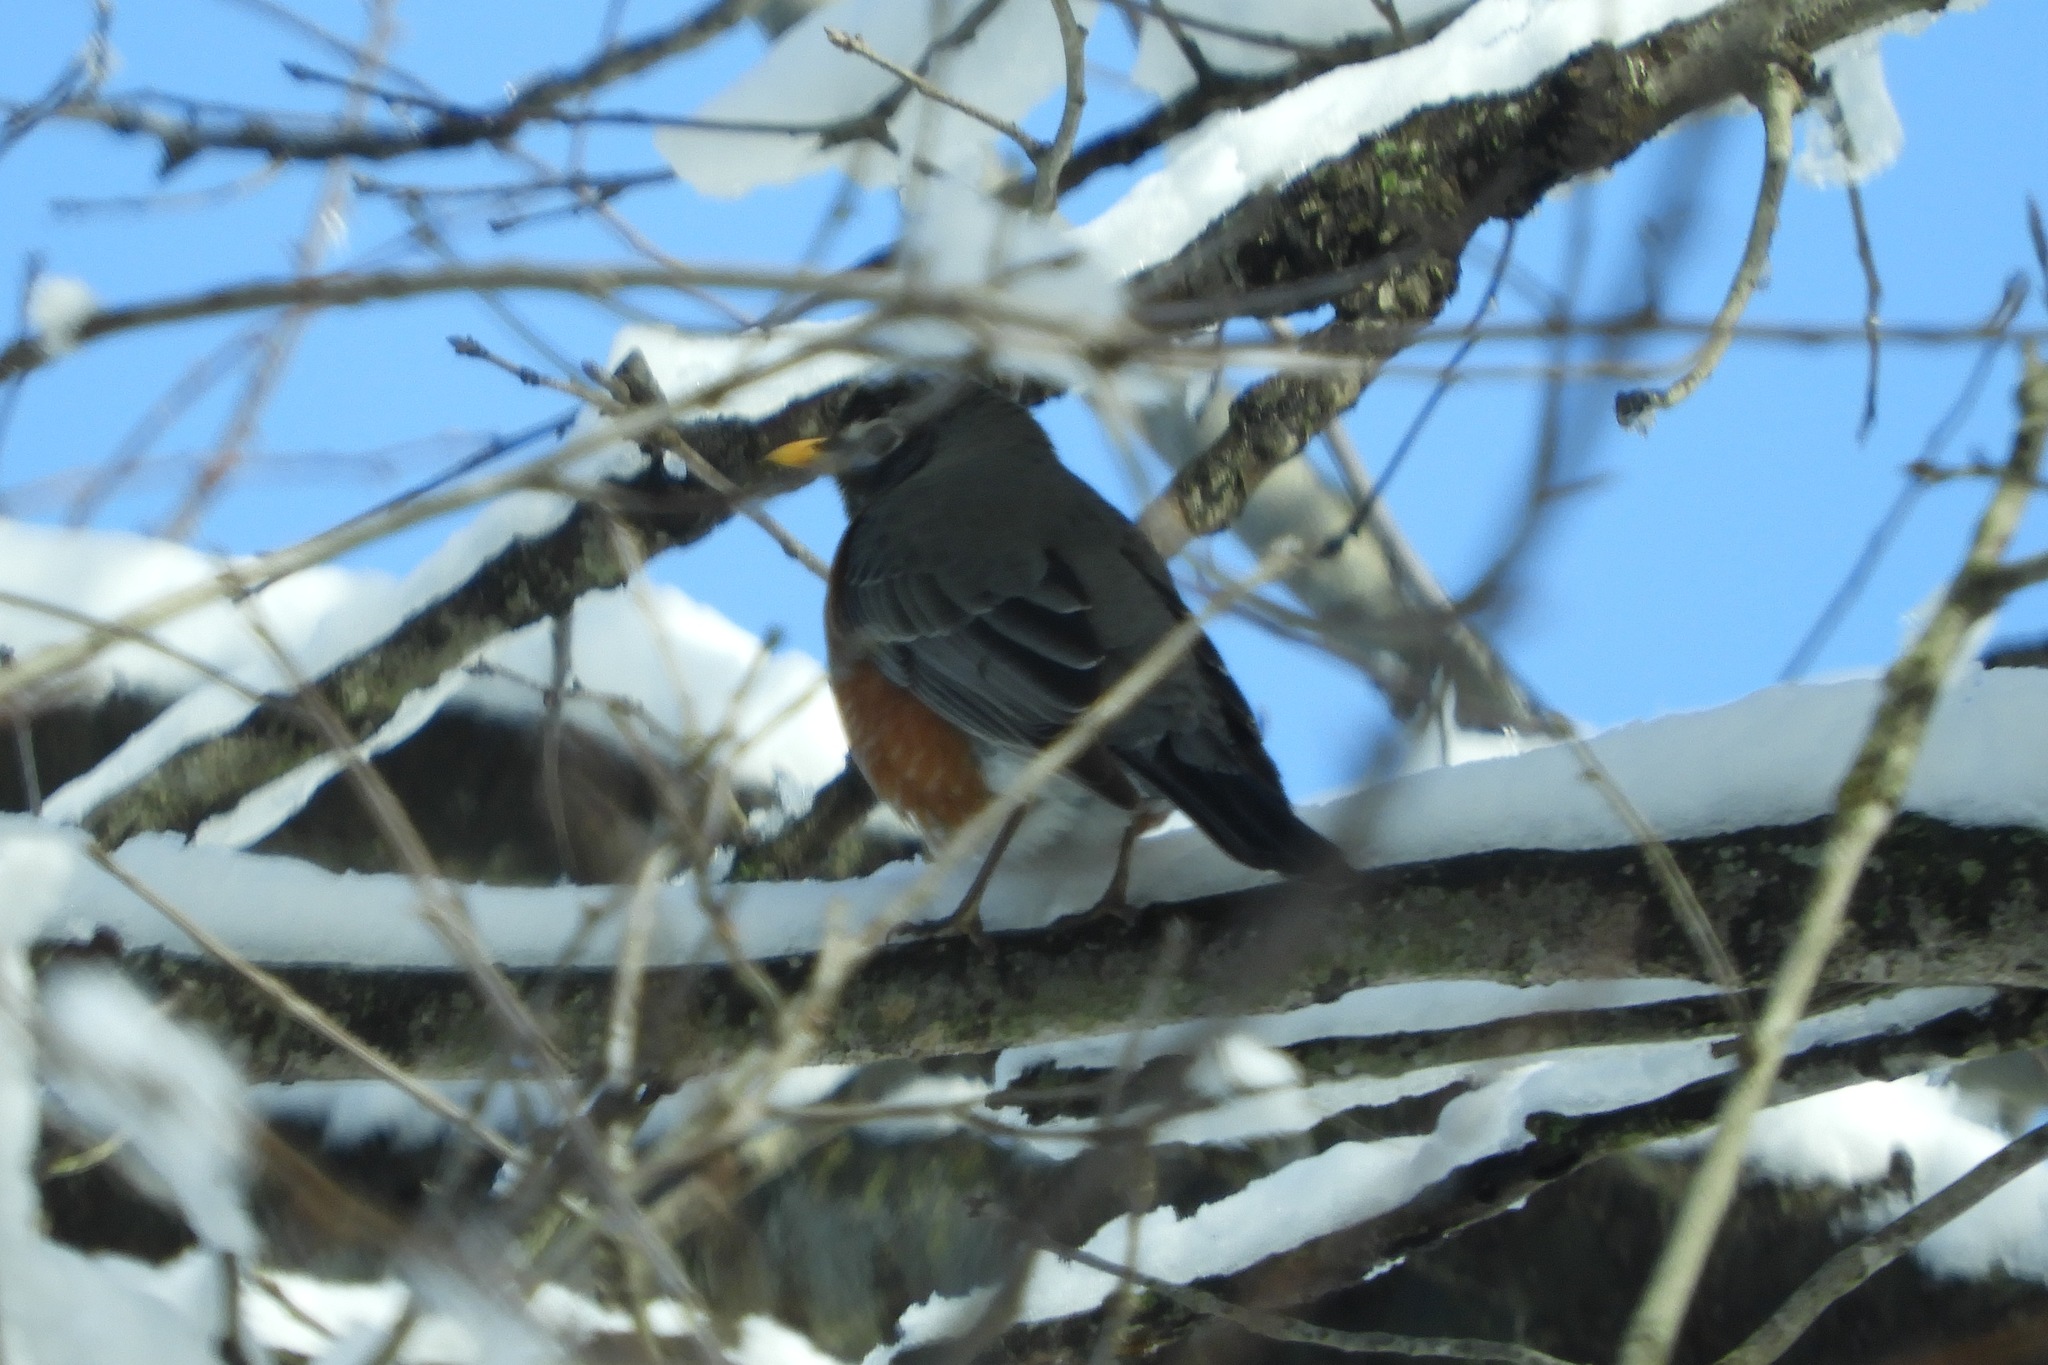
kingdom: Animalia
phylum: Chordata
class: Aves
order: Passeriformes
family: Turdidae
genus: Turdus
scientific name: Turdus migratorius
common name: American robin
